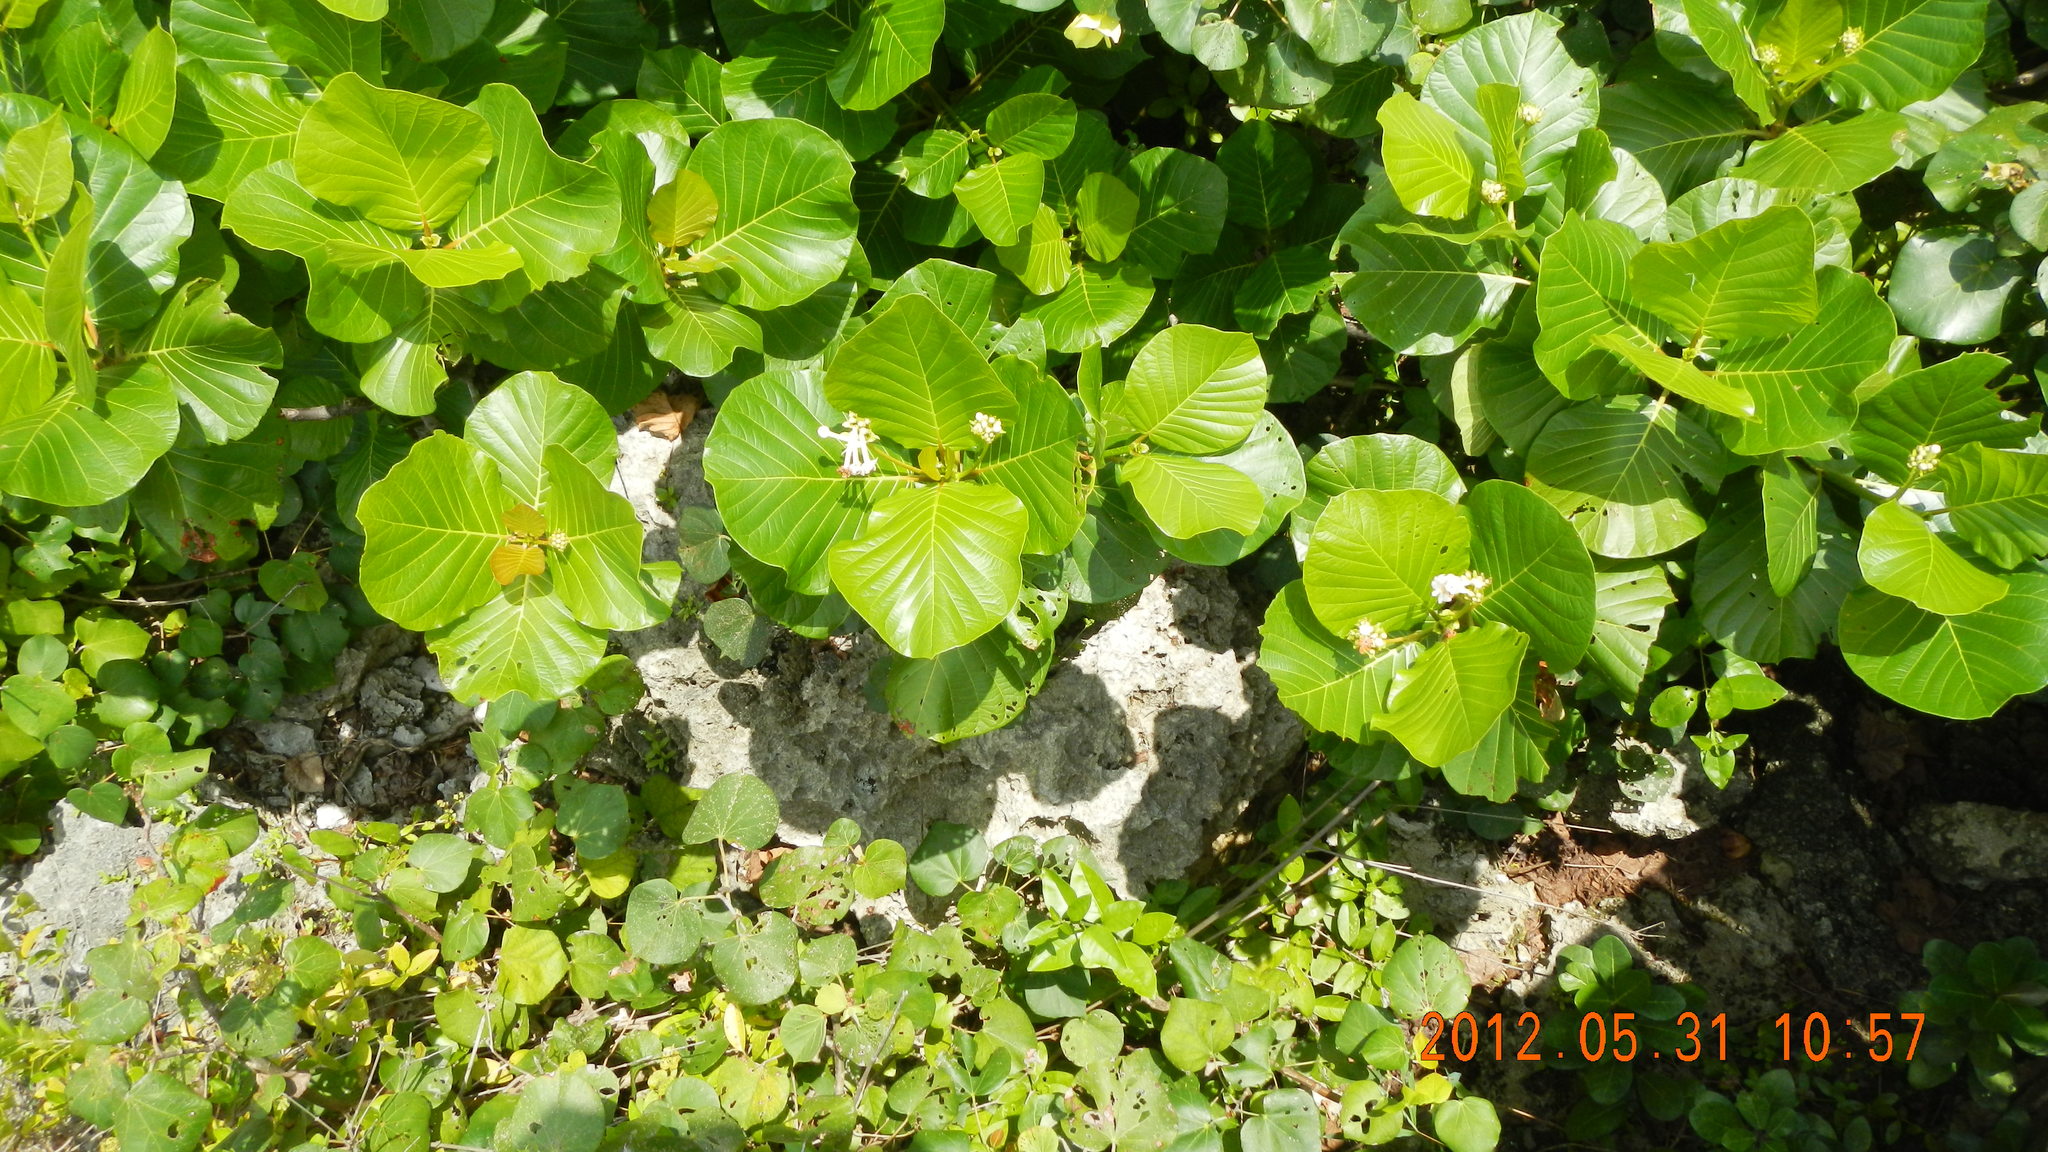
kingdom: Plantae
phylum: Tracheophyta
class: Magnoliopsida
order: Gentianales
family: Rubiaceae
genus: Guettarda
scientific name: Guettarda speciosa
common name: Sea randa
